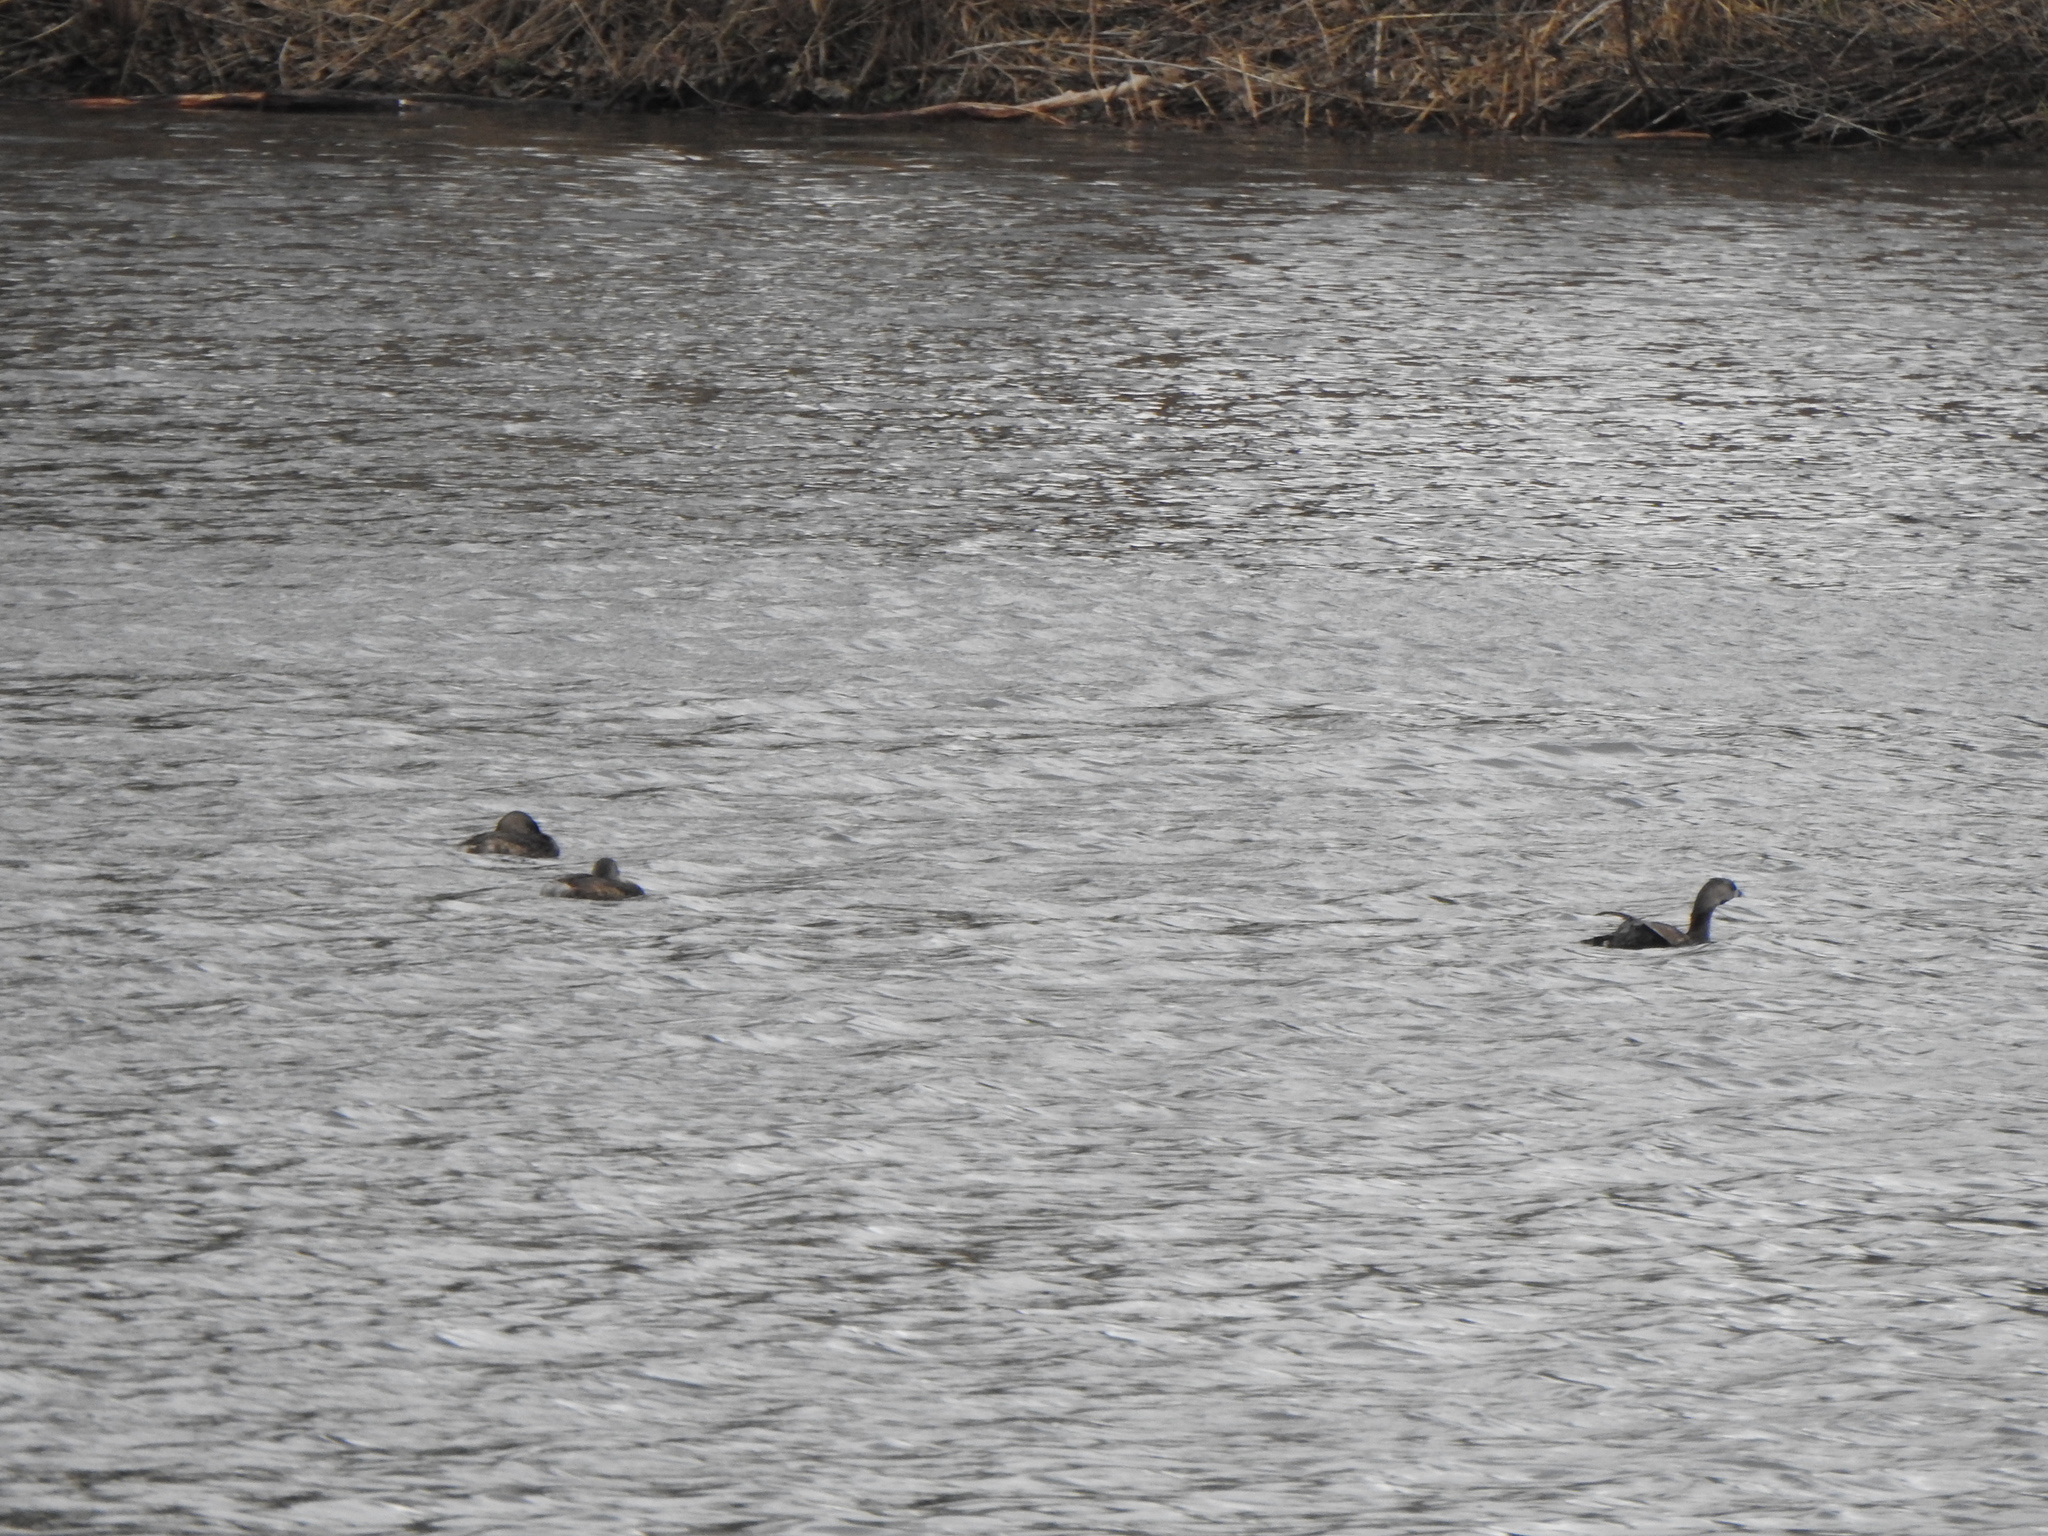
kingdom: Animalia
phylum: Chordata
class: Aves
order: Podicipediformes
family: Podicipedidae
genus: Podilymbus
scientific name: Podilymbus podiceps
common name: Pied-billed grebe
